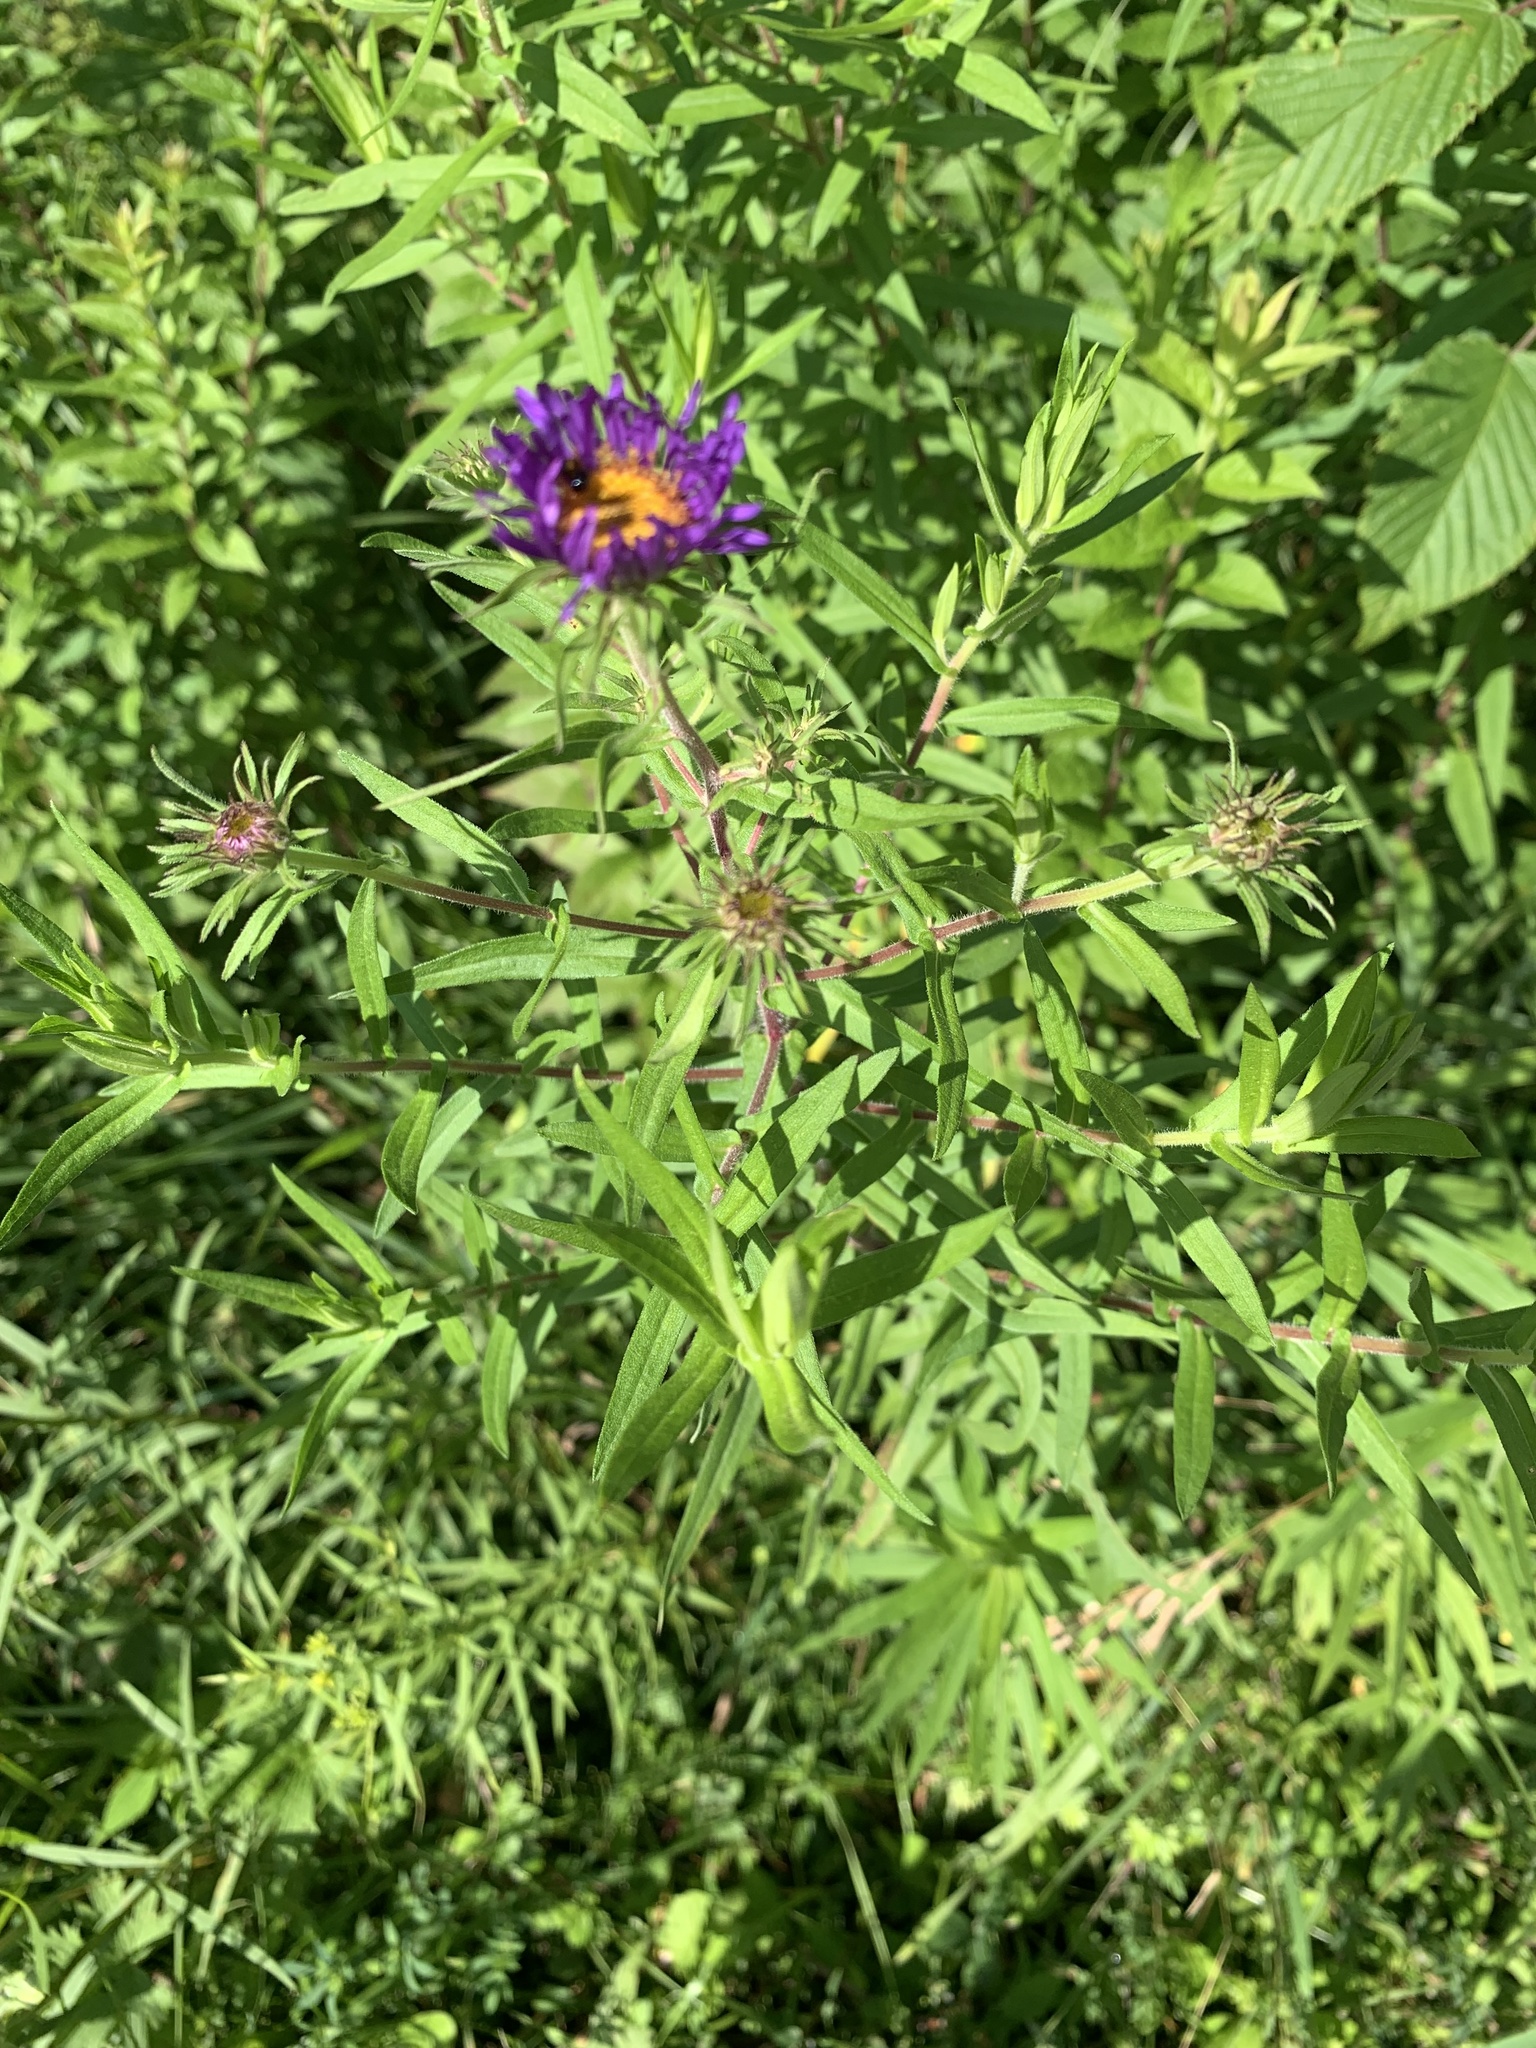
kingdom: Plantae
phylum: Tracheophyta
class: Magnoliopsida
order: Asterales
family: Asteraceae
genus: Symphyotrichum
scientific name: Symphyotrichum novae-angliae
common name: Michaelmas daisy
